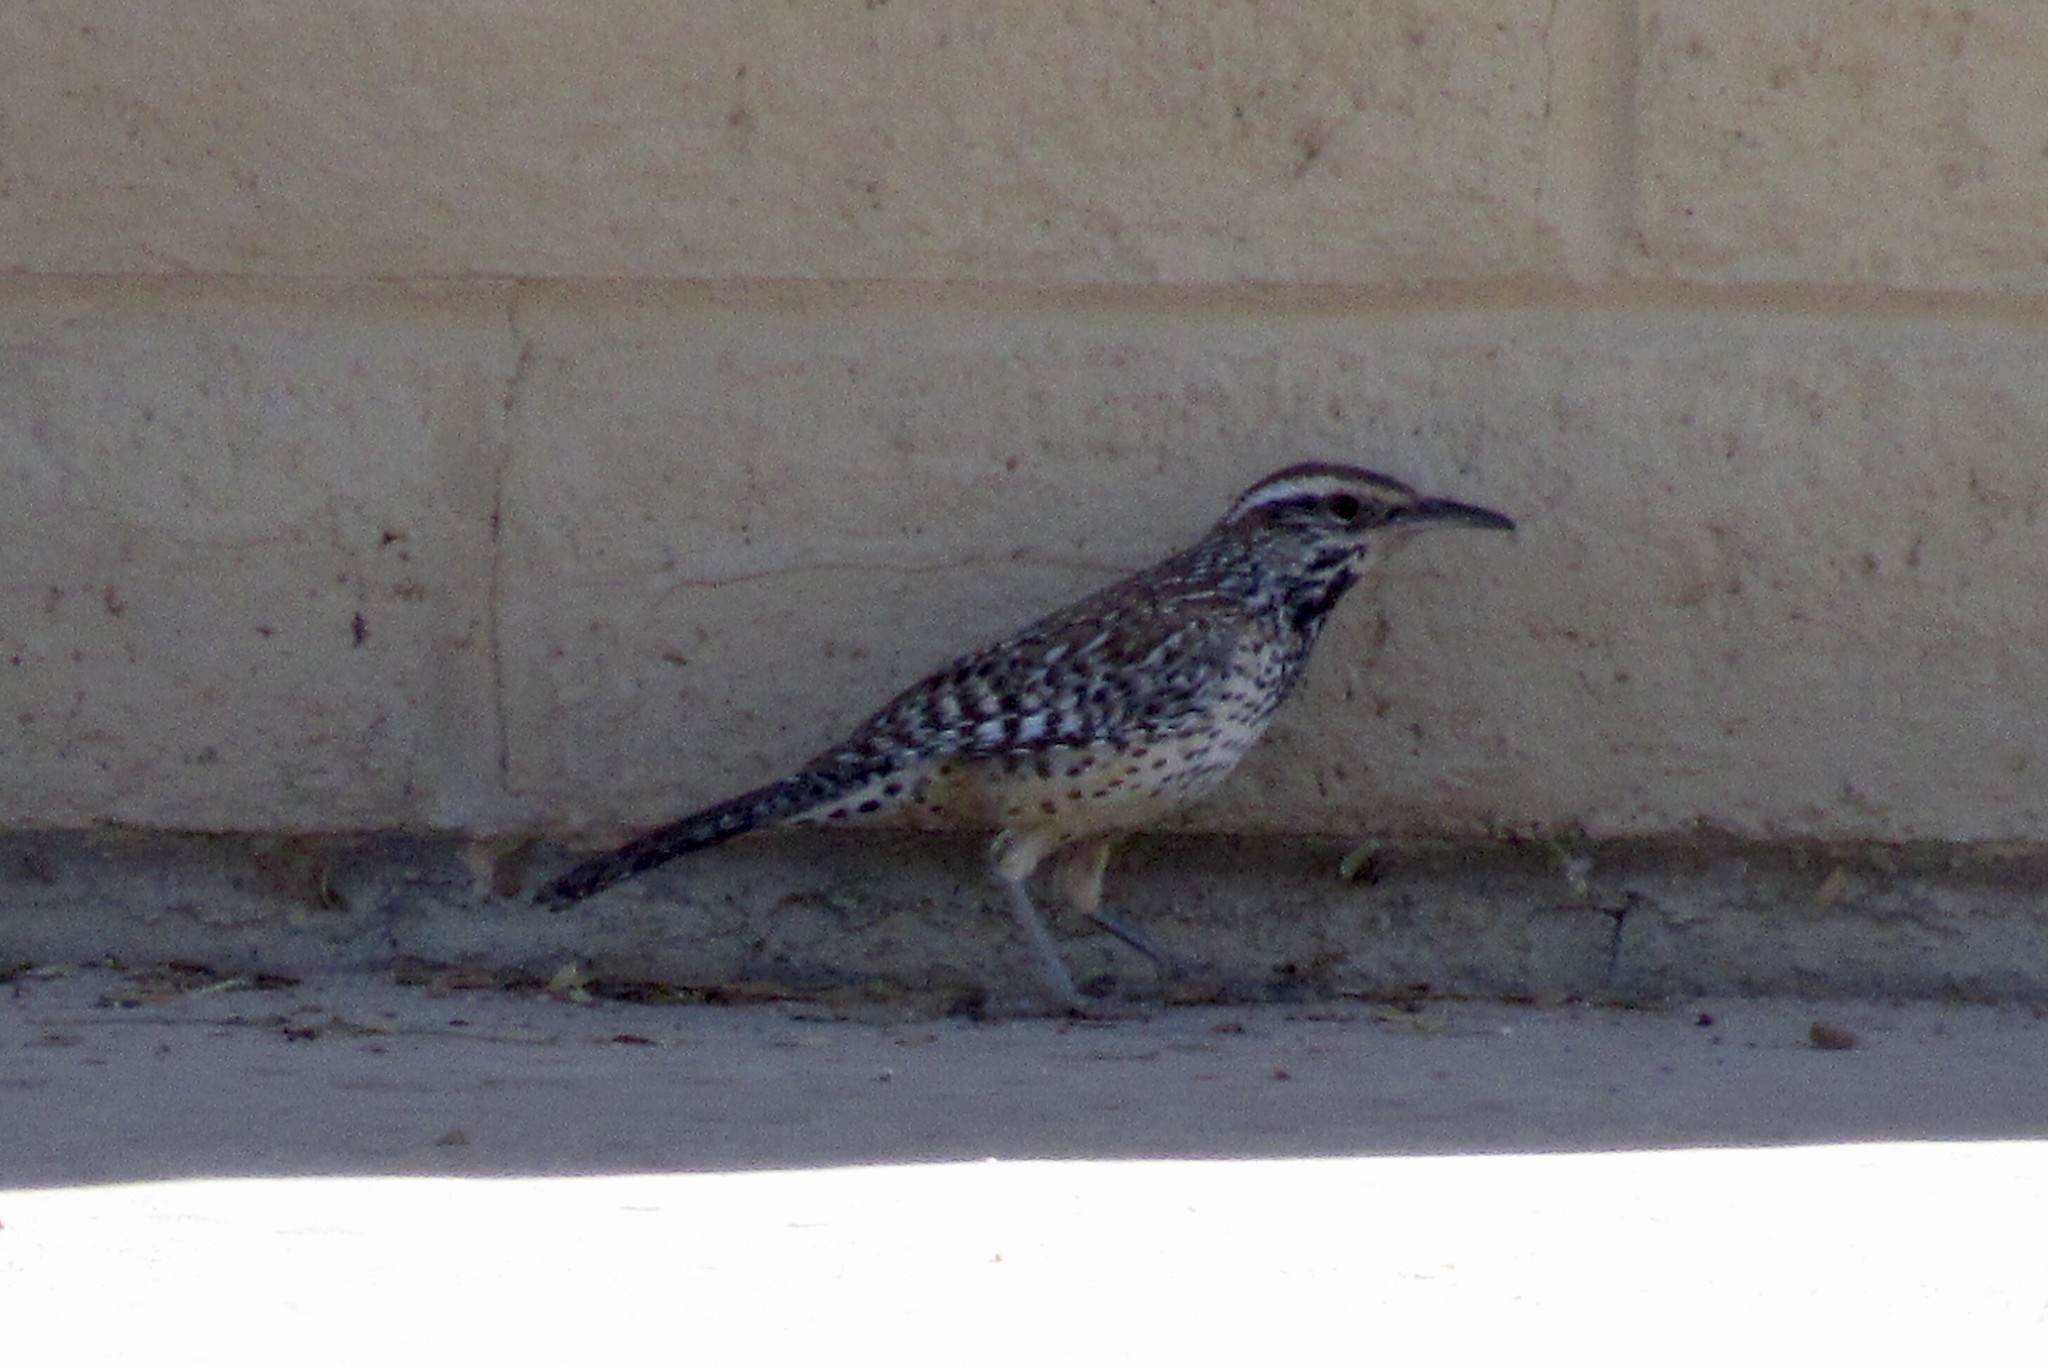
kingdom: Animalia
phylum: Chordata
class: Aves
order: Passeriformes
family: Troglodytidae
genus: Campylorhynchus
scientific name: Campylorhynchus brunneicapillus
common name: Cactus wren
